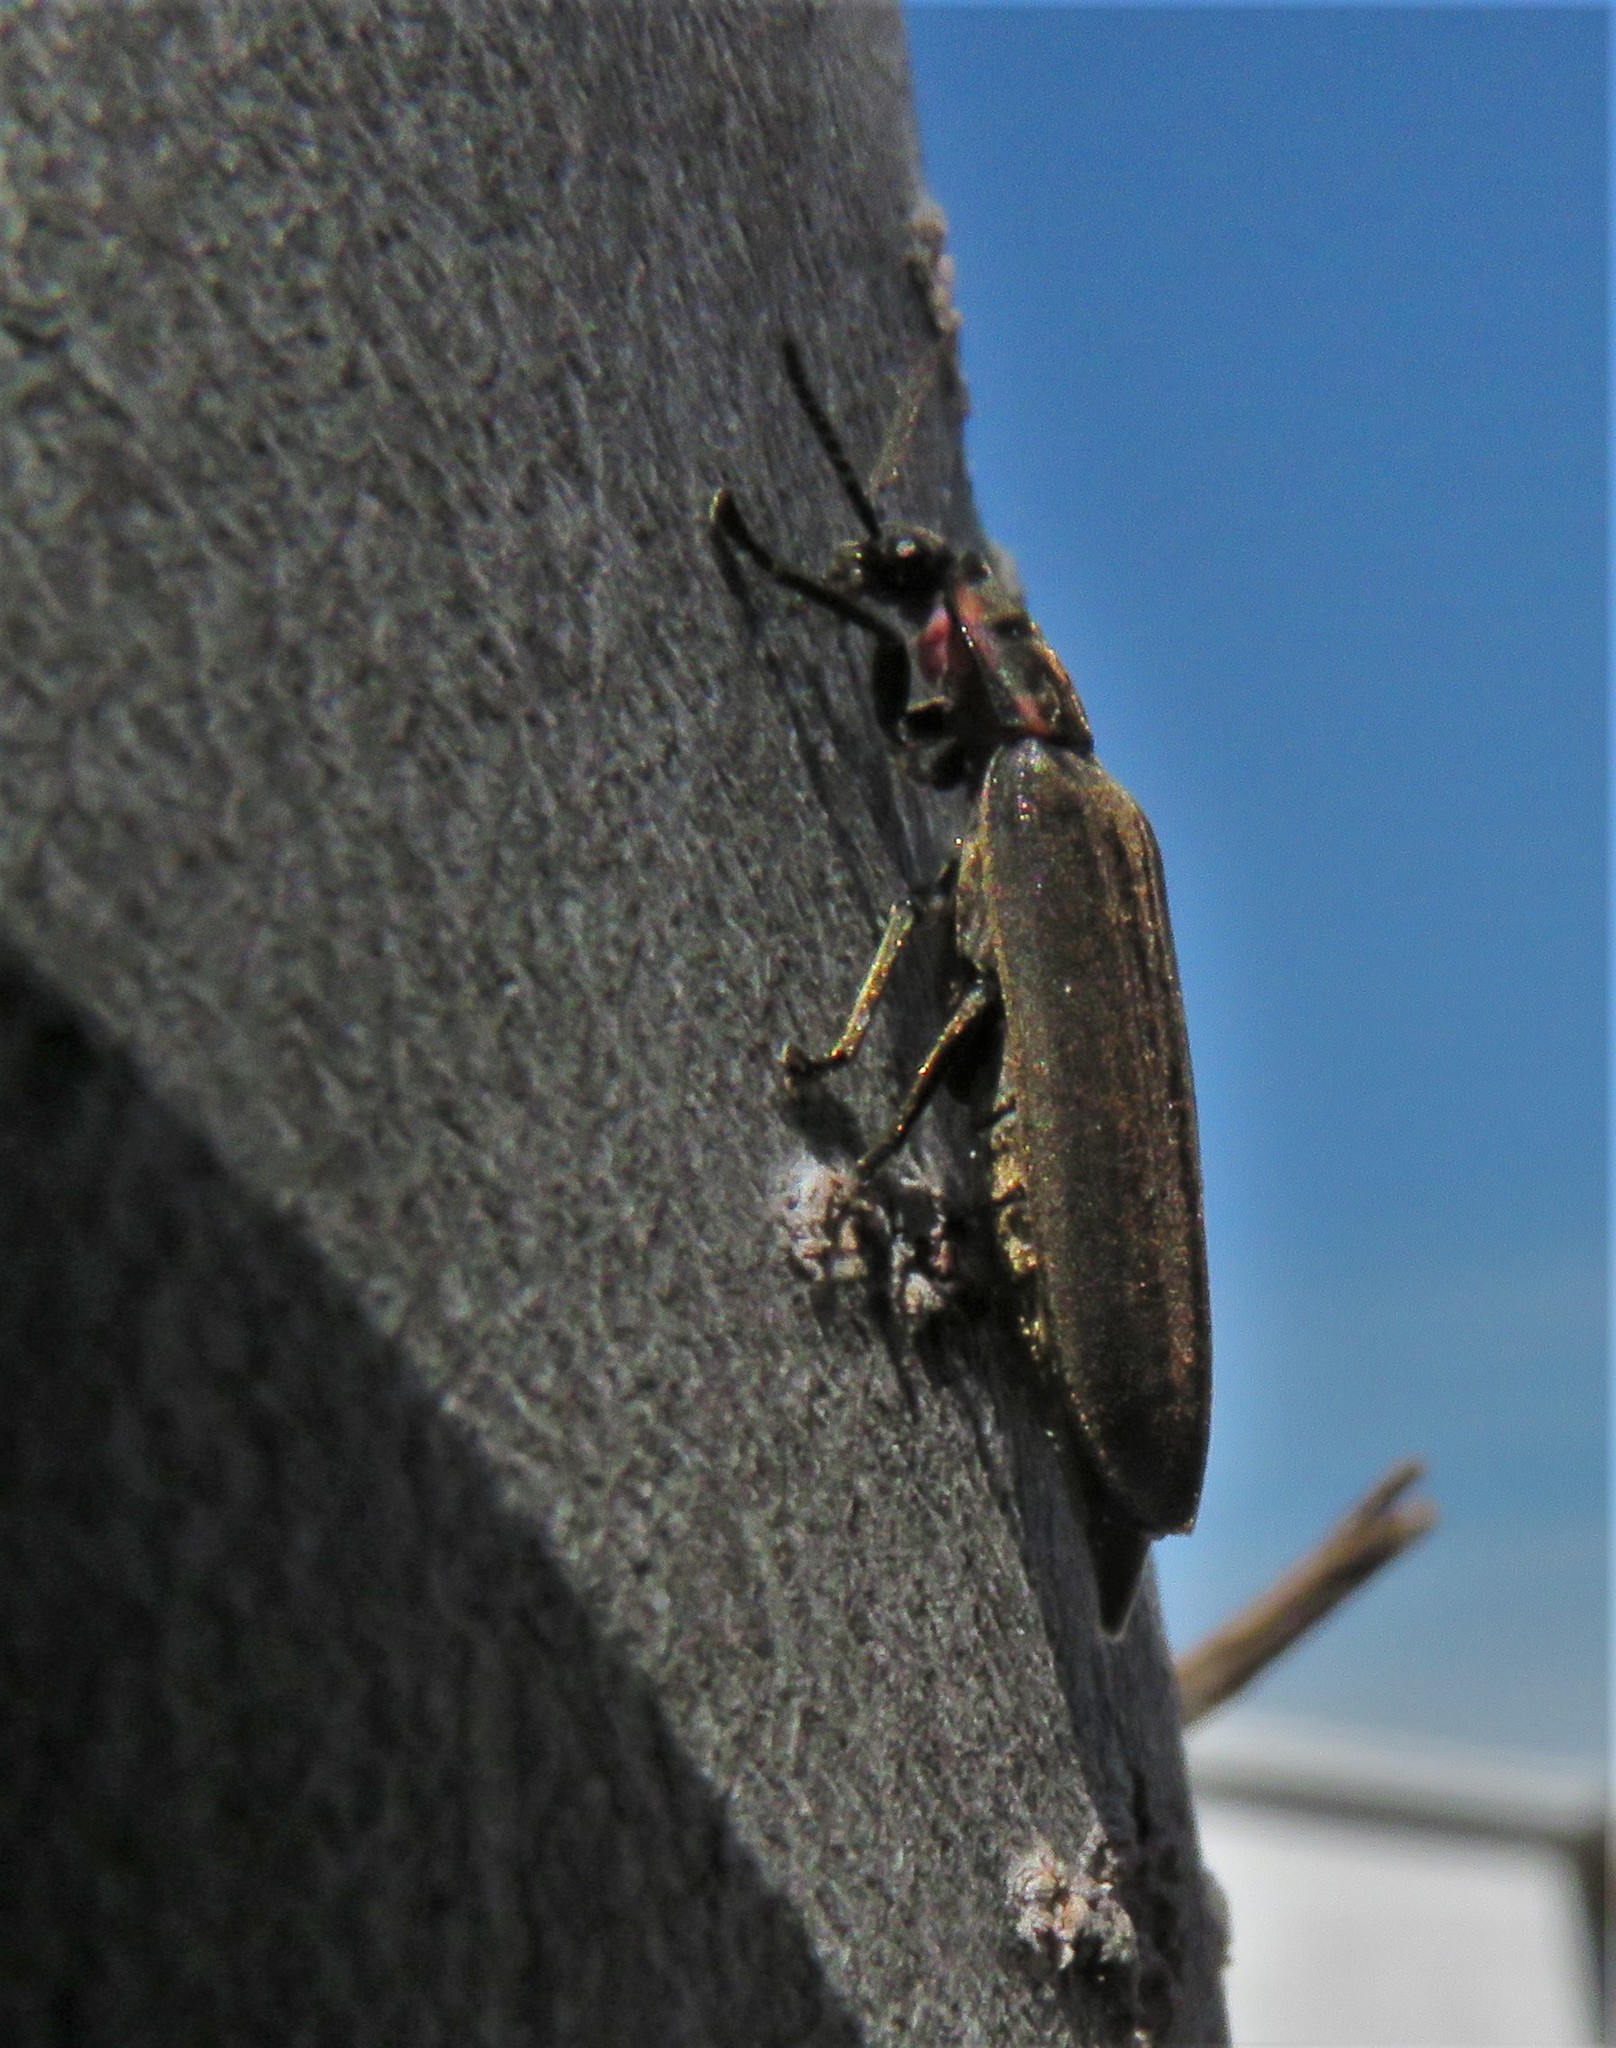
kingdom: Animalia
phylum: Arthropoda
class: Insecta
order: Coleoptera
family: Lampyridae
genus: Photinus
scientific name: Photinus corrusca
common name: Winter firefly
